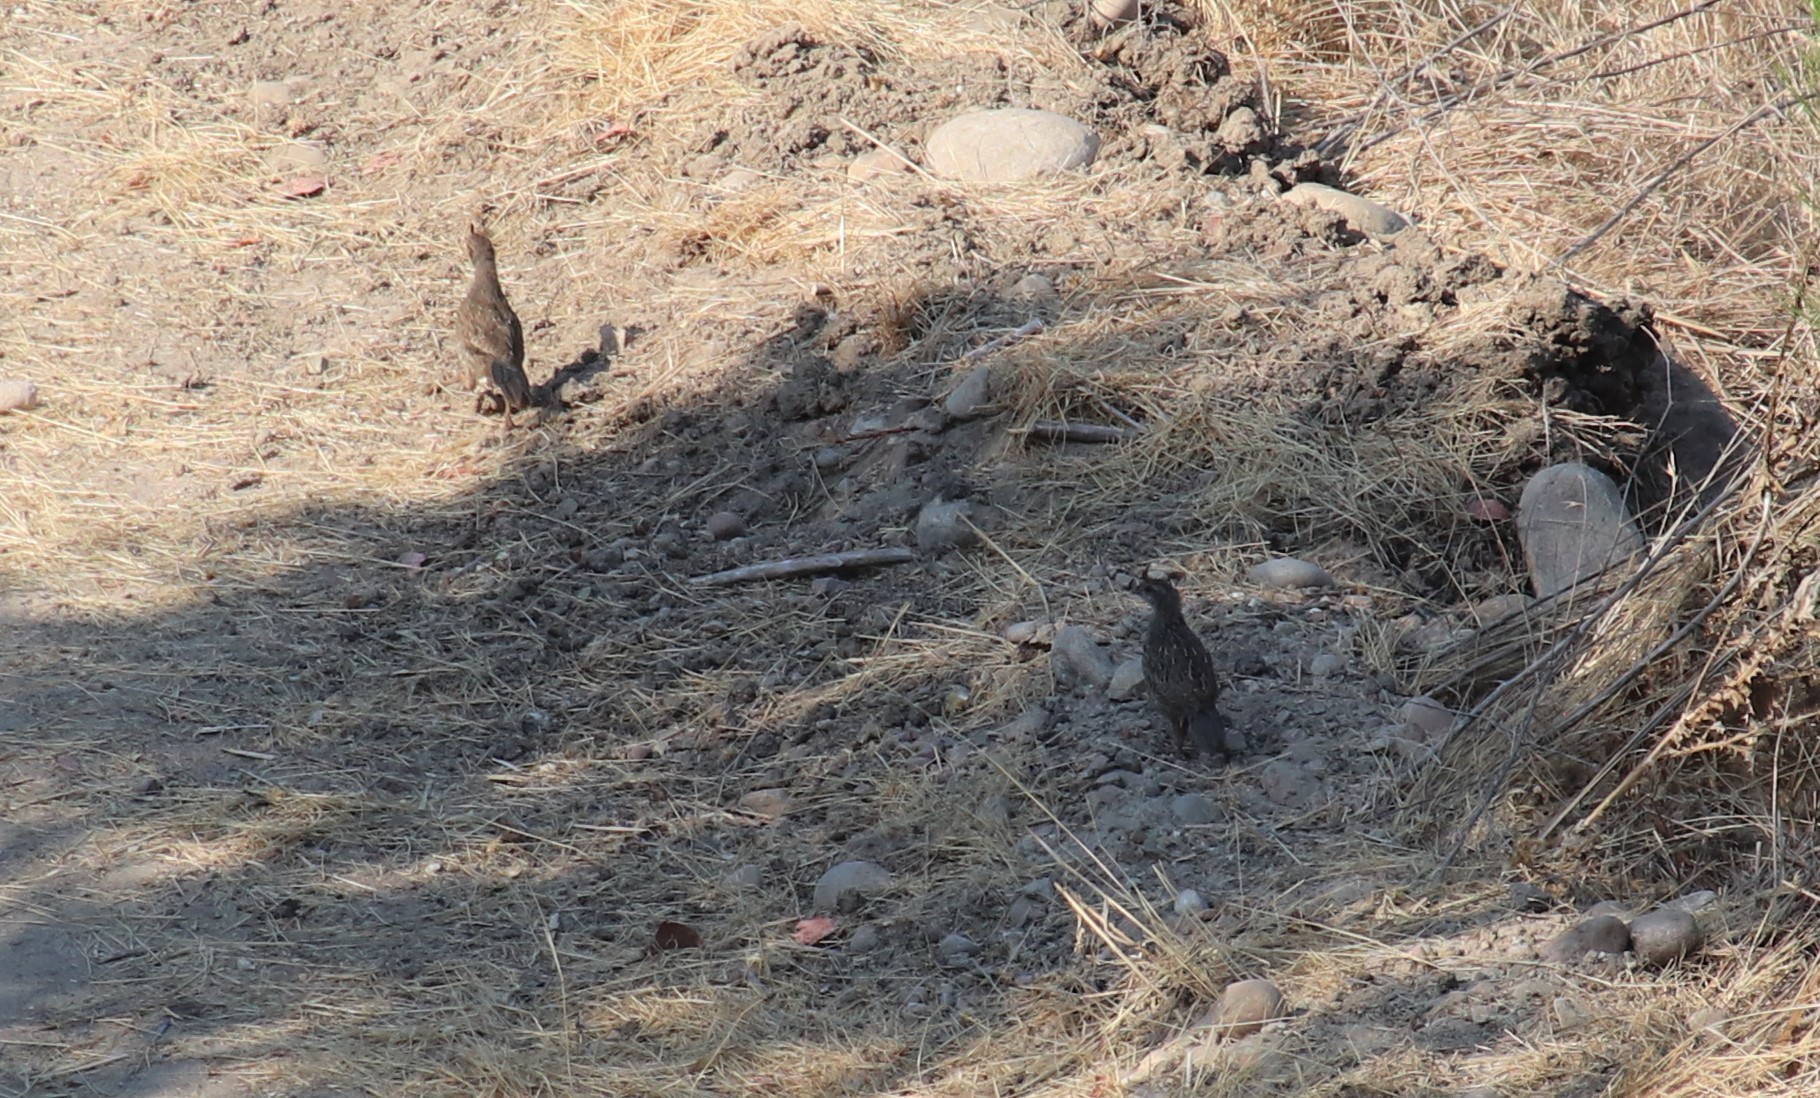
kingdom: Animalia
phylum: Chordata
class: Aves
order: Galliformes
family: Odontophoridae
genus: Callipepla
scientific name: Callipepla californica
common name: California quail
